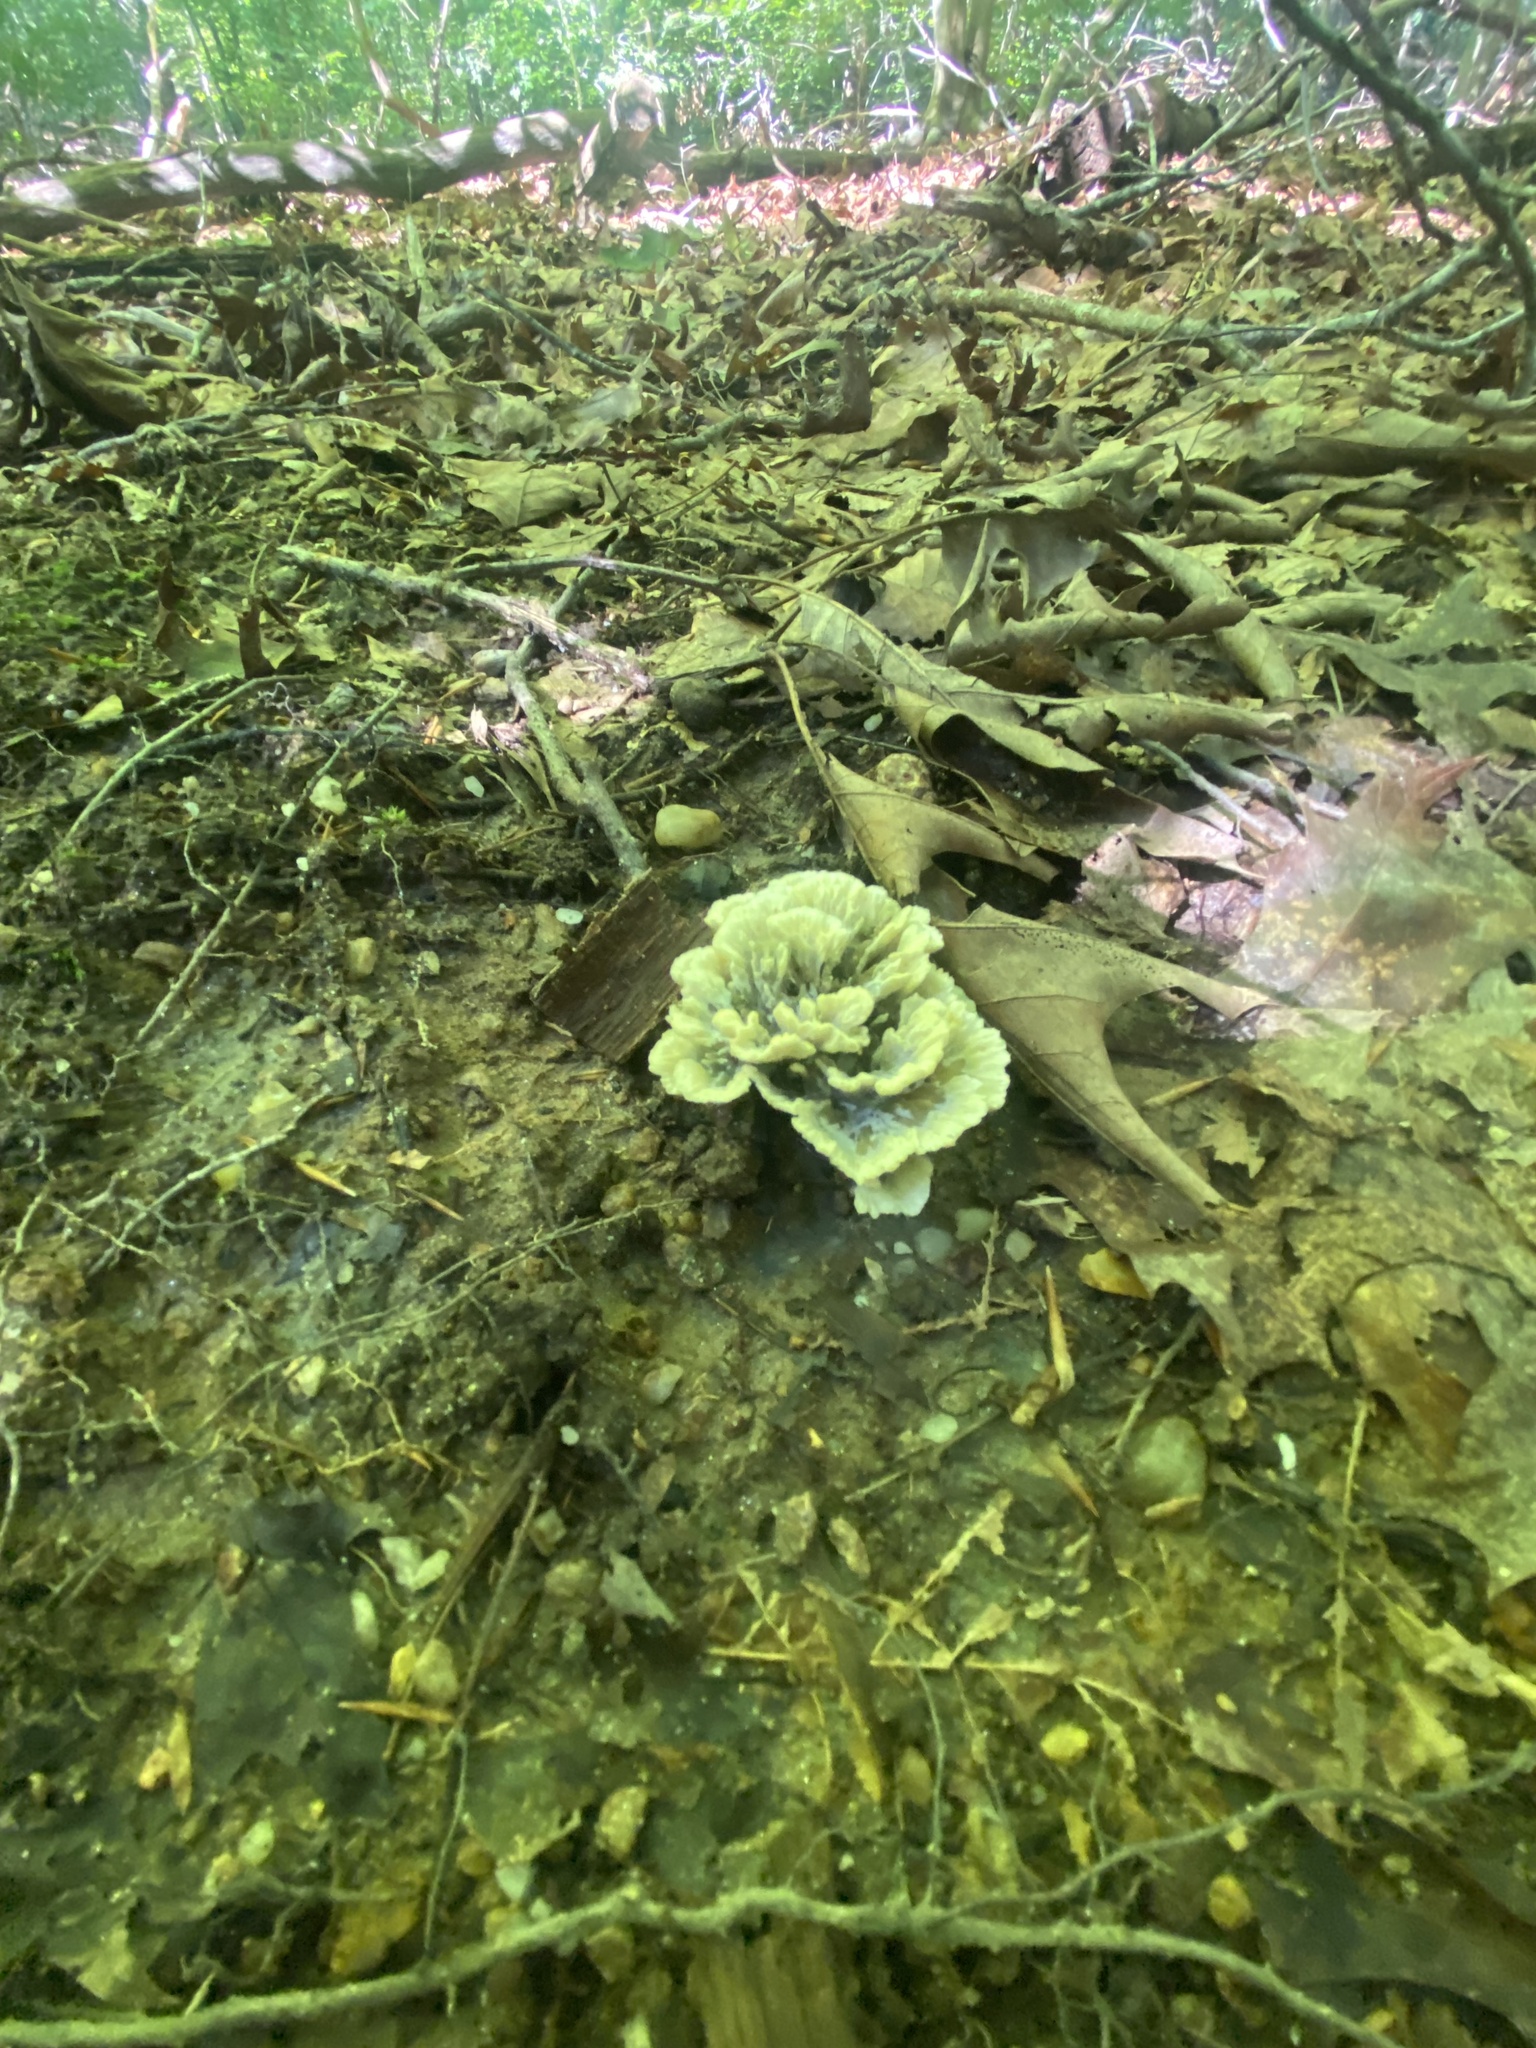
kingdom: Fungi
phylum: Basidiomycota
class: Agaricomycetes
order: Thelephorales
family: Thelephoraceae
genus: Thelephora
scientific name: Thelephora vialis
